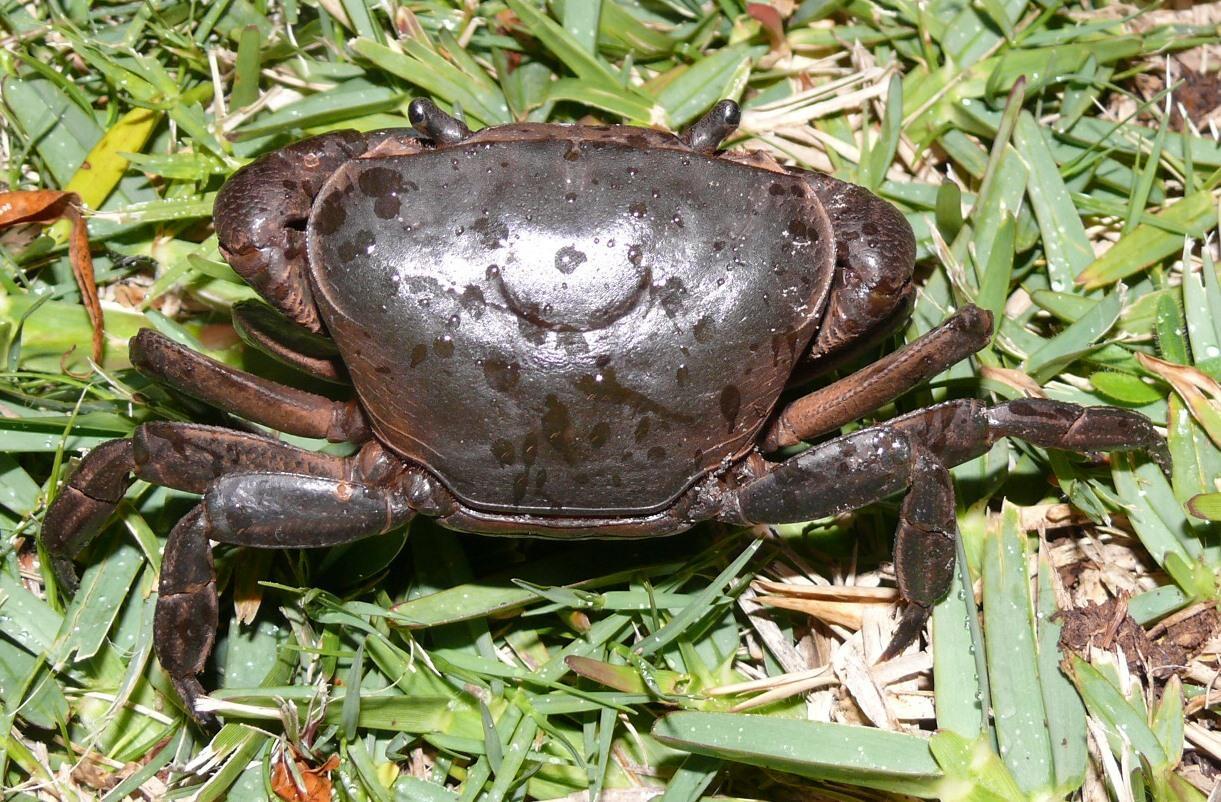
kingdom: Animalia
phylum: Arthropoda
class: Malacostraca
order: Decapoda
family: Potamonautidae
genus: Potamonautes
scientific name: Potamonautes perlatus
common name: Cape river crab
